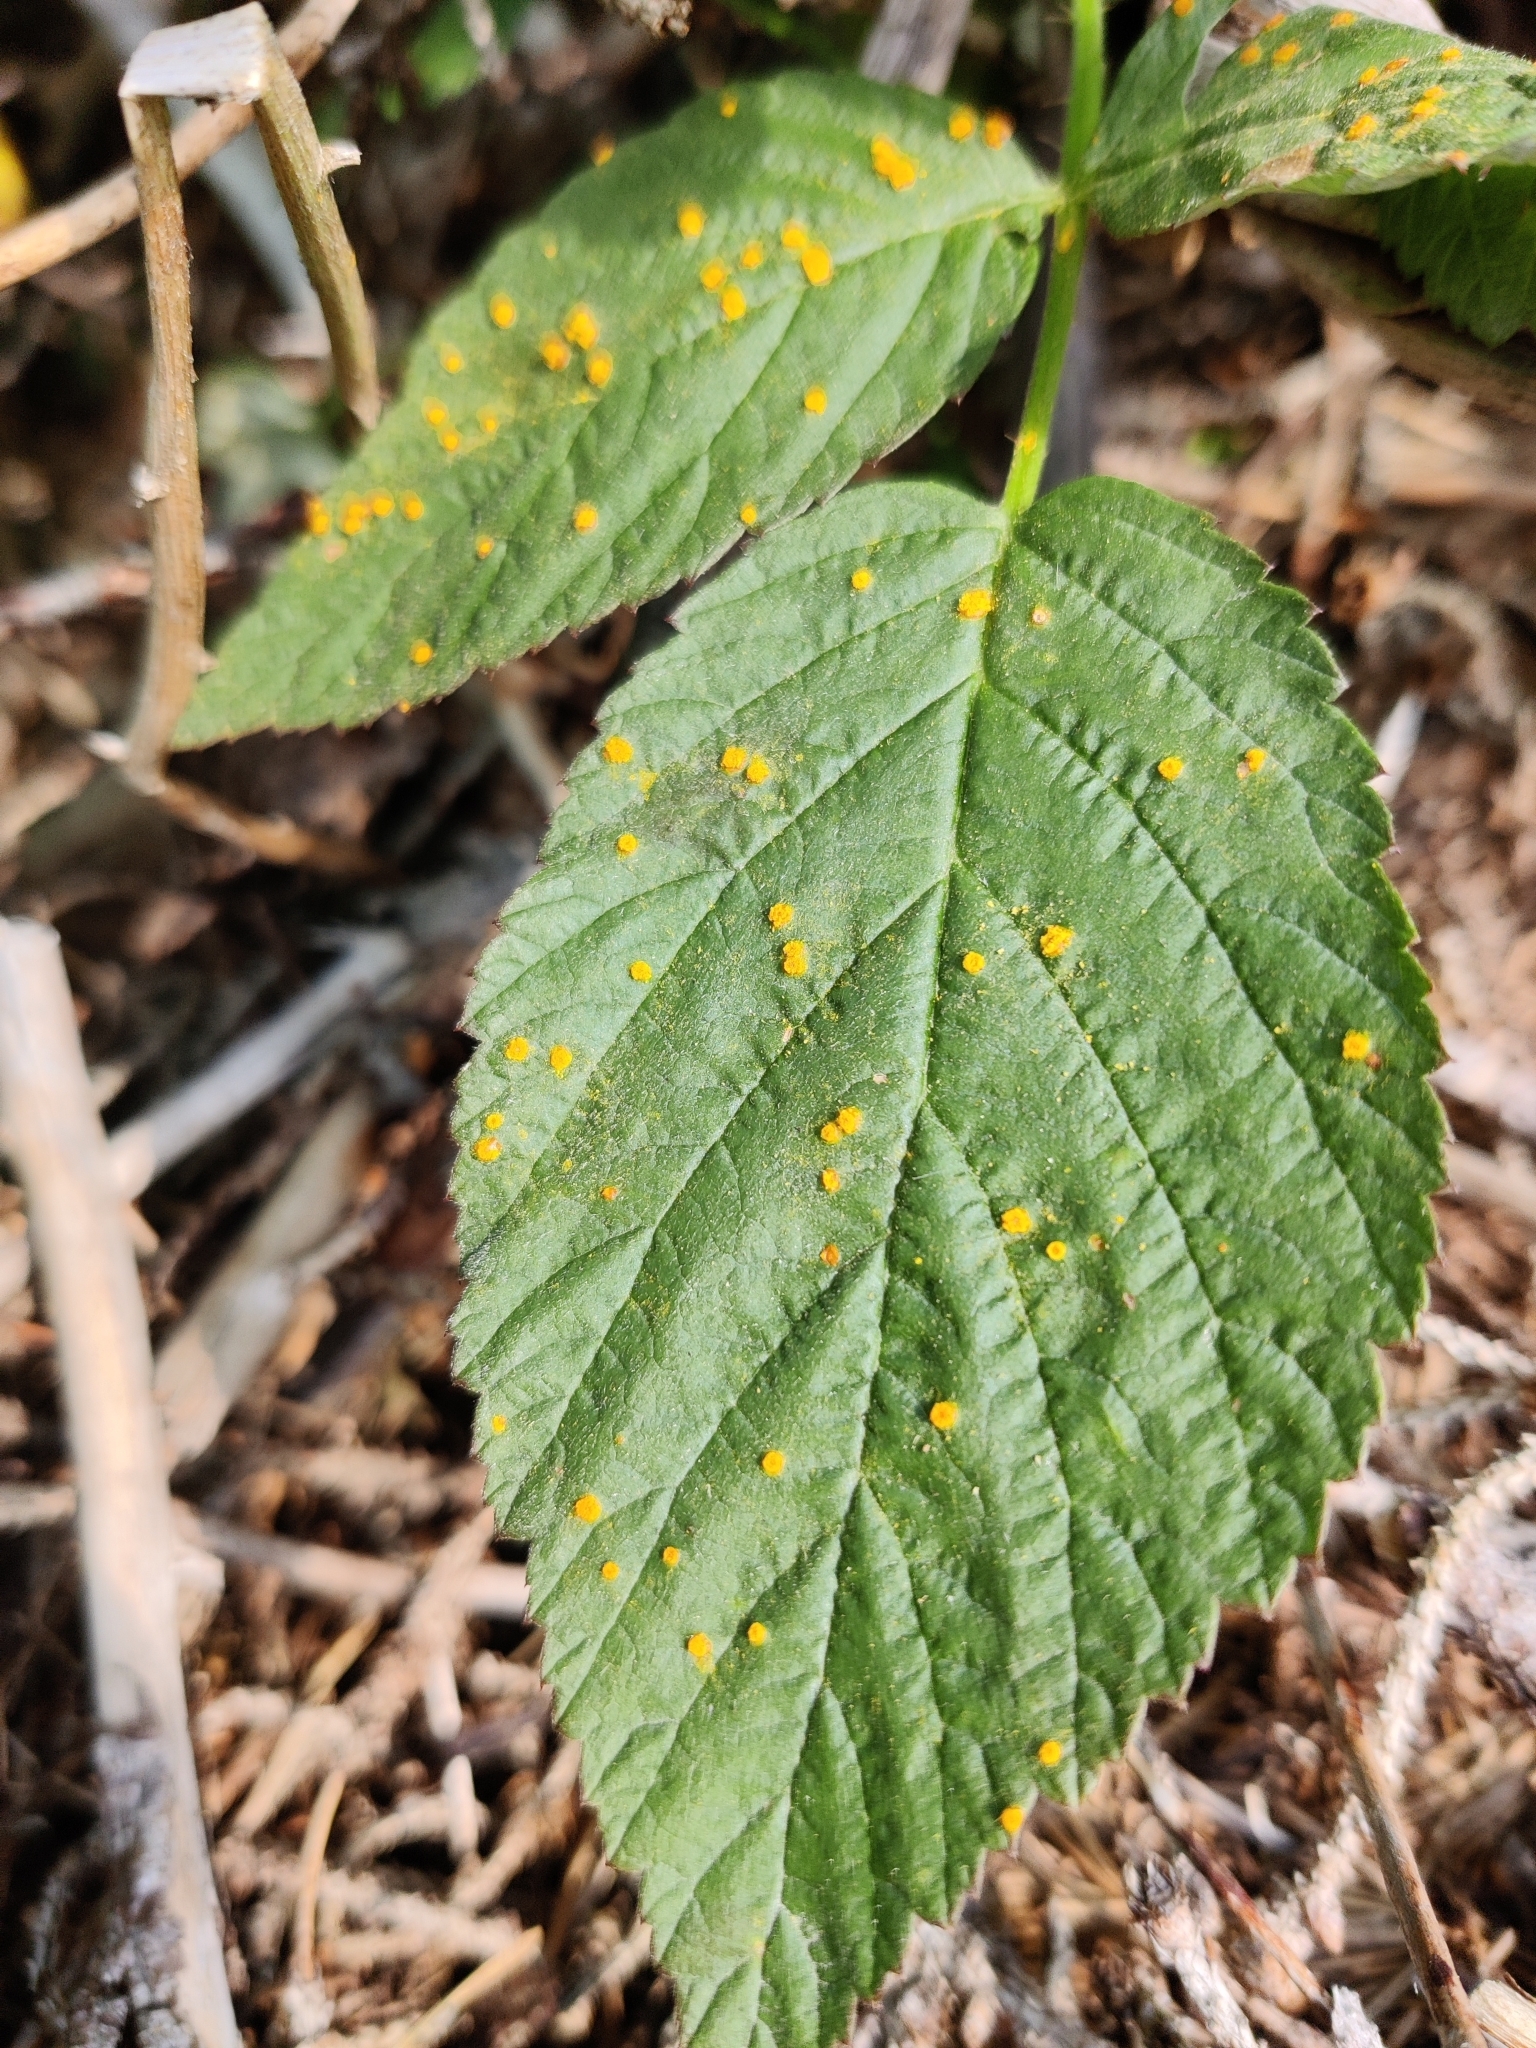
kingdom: Fungi
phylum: Basidiomycota
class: Pucciniomycetes
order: Pucciniales
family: Phragmidiaceae
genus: Phragmidium
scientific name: Phragmidium rubi-idaei
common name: Raspberry rust
